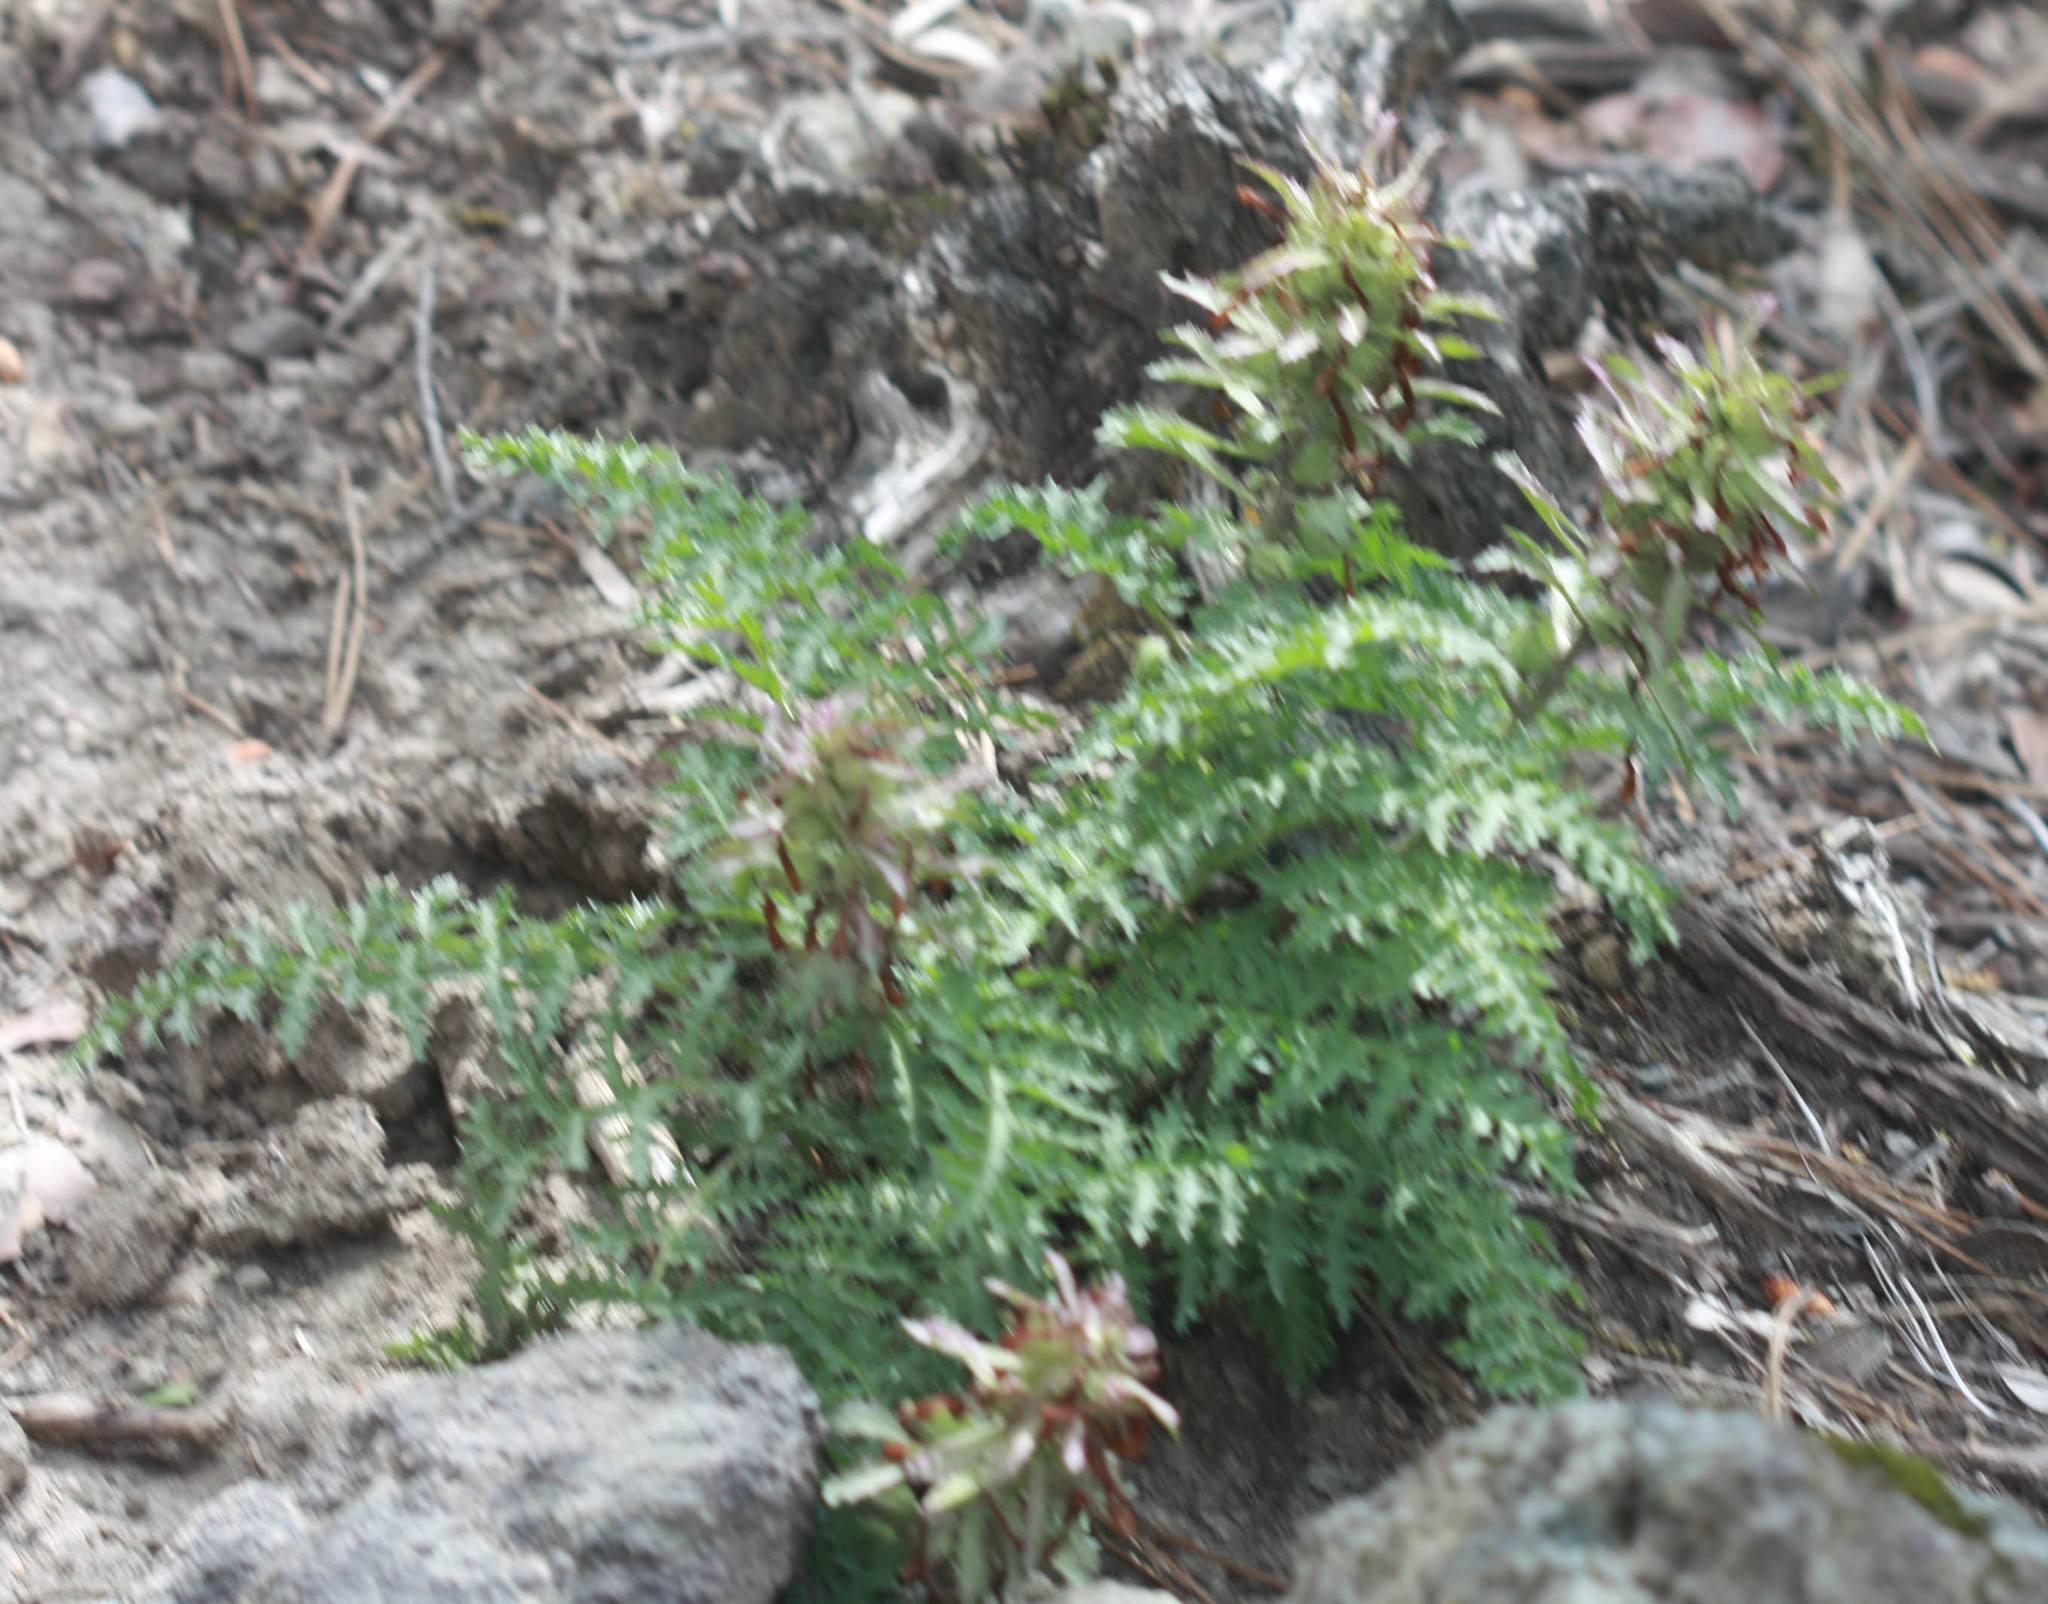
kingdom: Plantae
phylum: Tracheophyta
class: Magnoliopsida
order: Lamiales
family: Orobanchaceae
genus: Pedicularis
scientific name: Pedicularis densiflora
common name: Indian warrior
